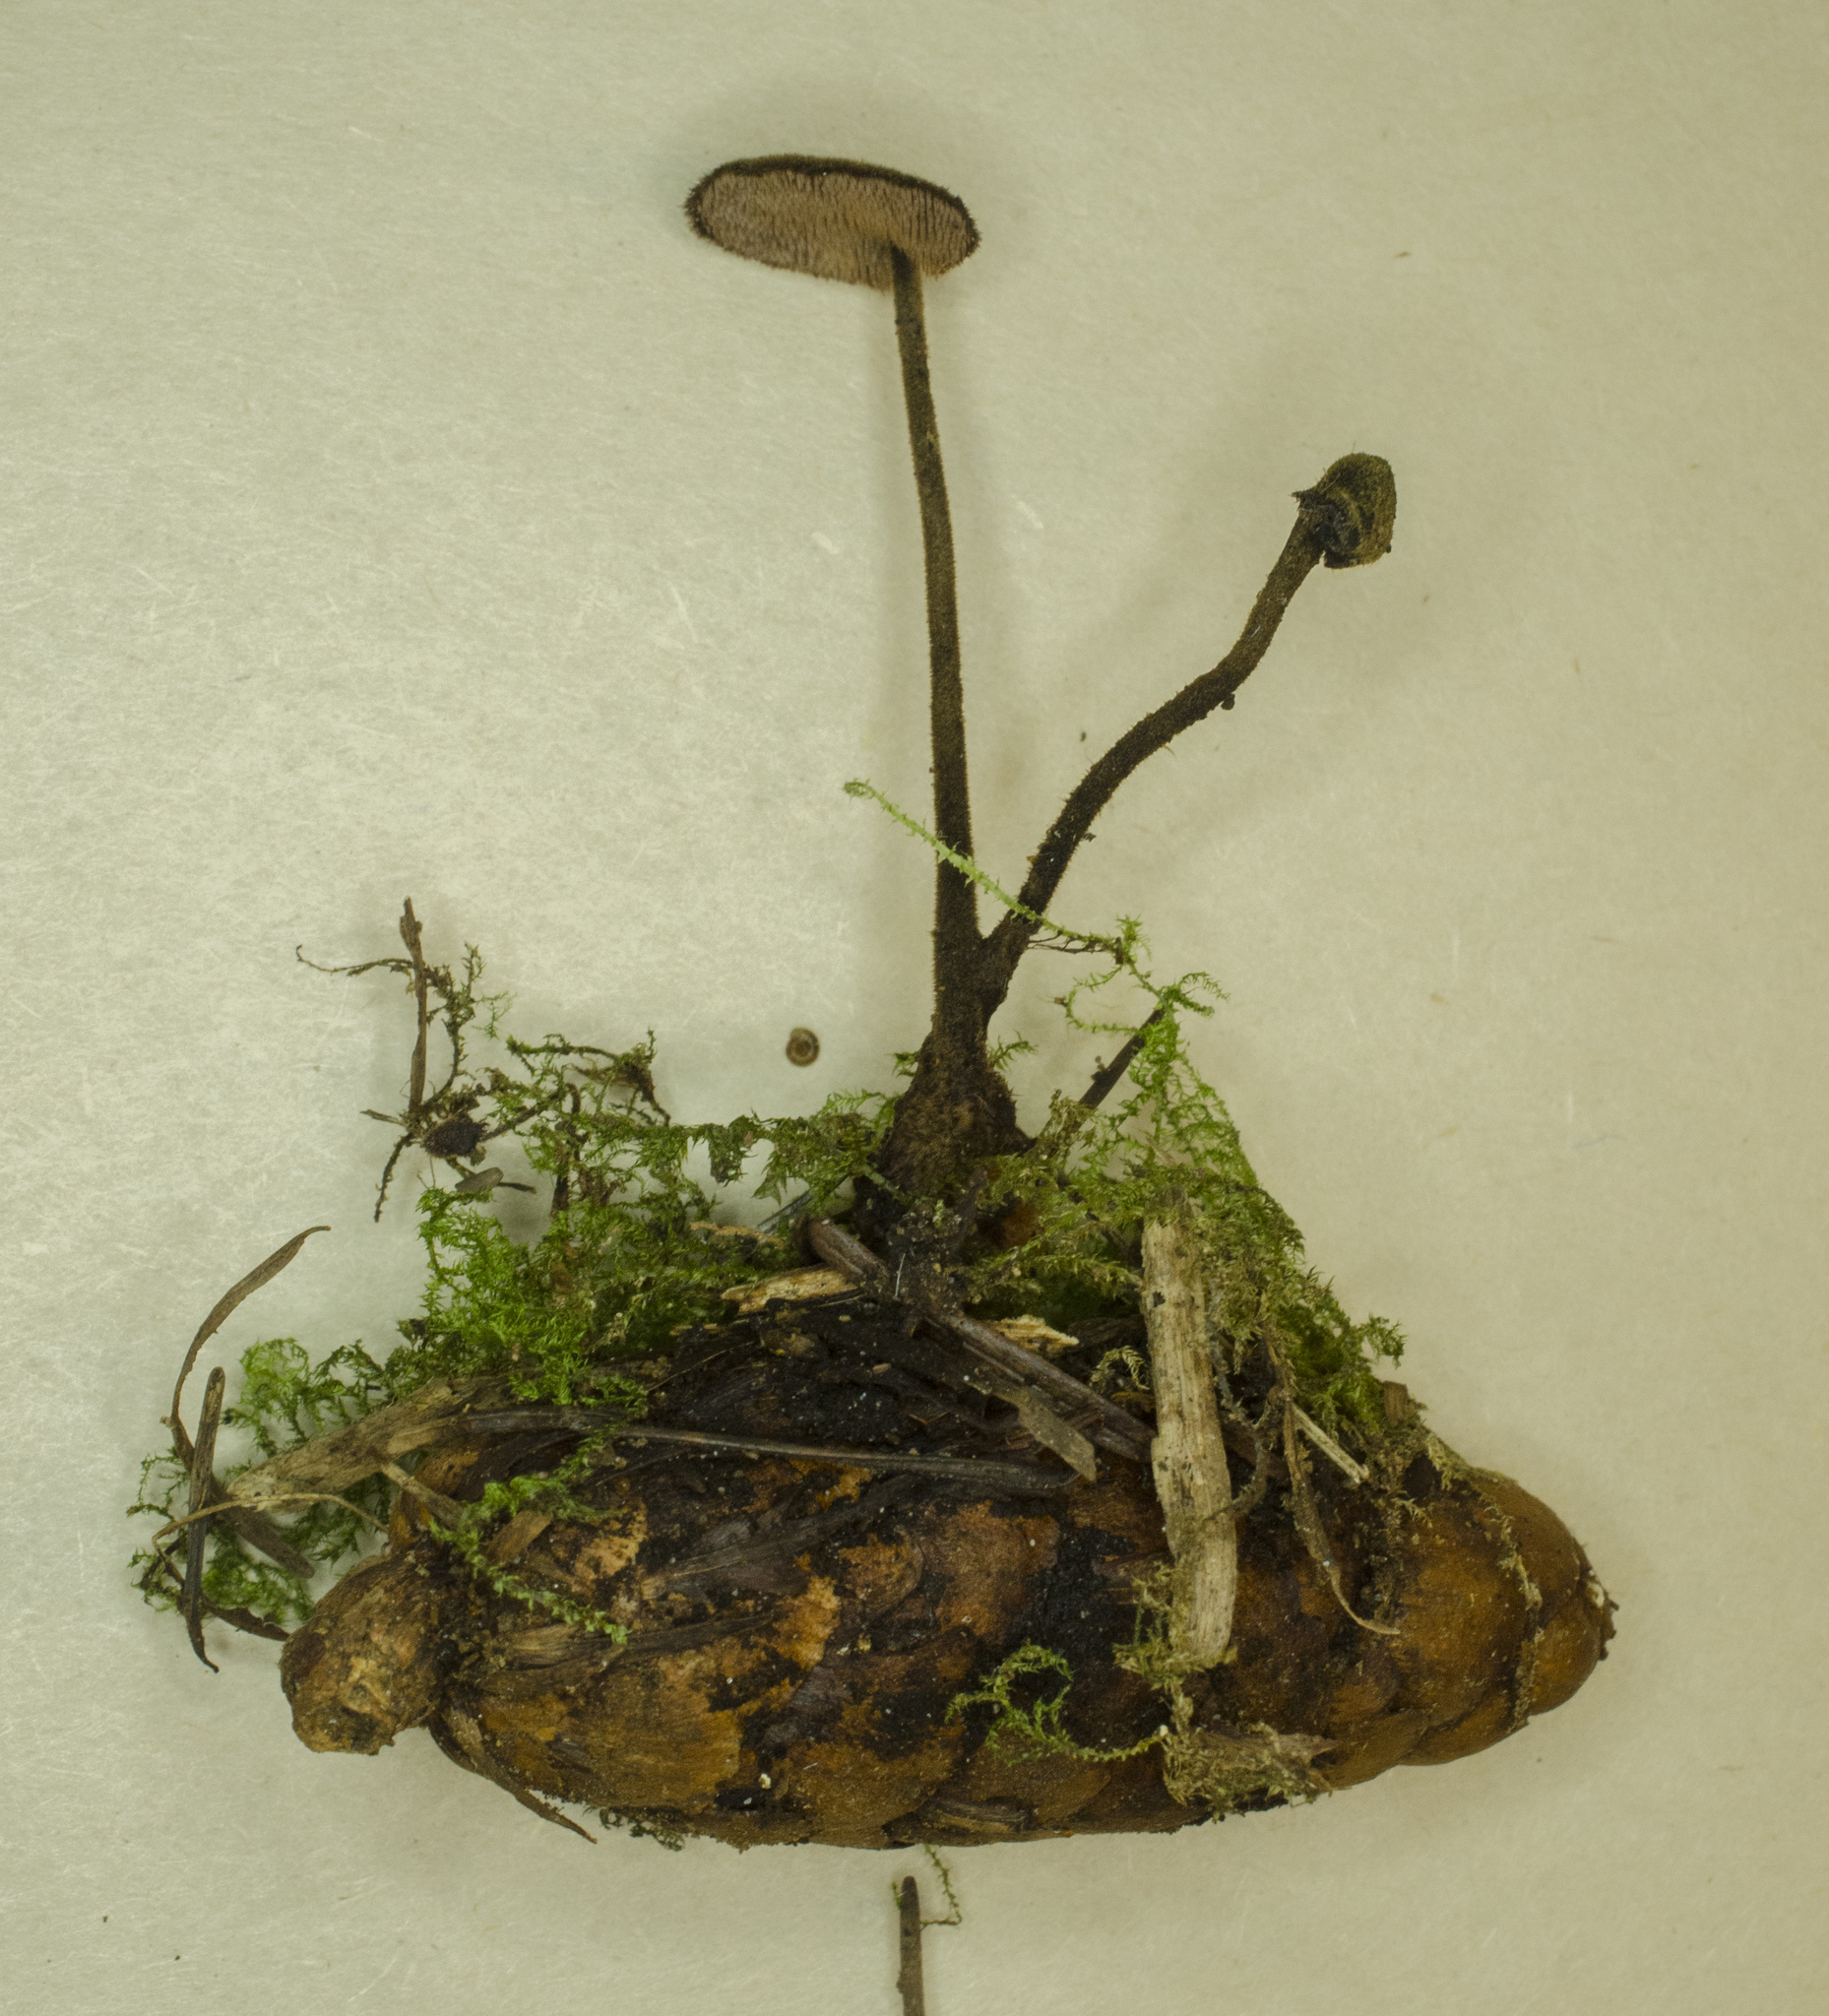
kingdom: Fungi
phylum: Basidiomycota
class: Agaricomycetes
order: Russulales
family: Auriscalpiaceae
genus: Auriscalpium
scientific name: Auriscalpium vulgare
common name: Earpick fungus
